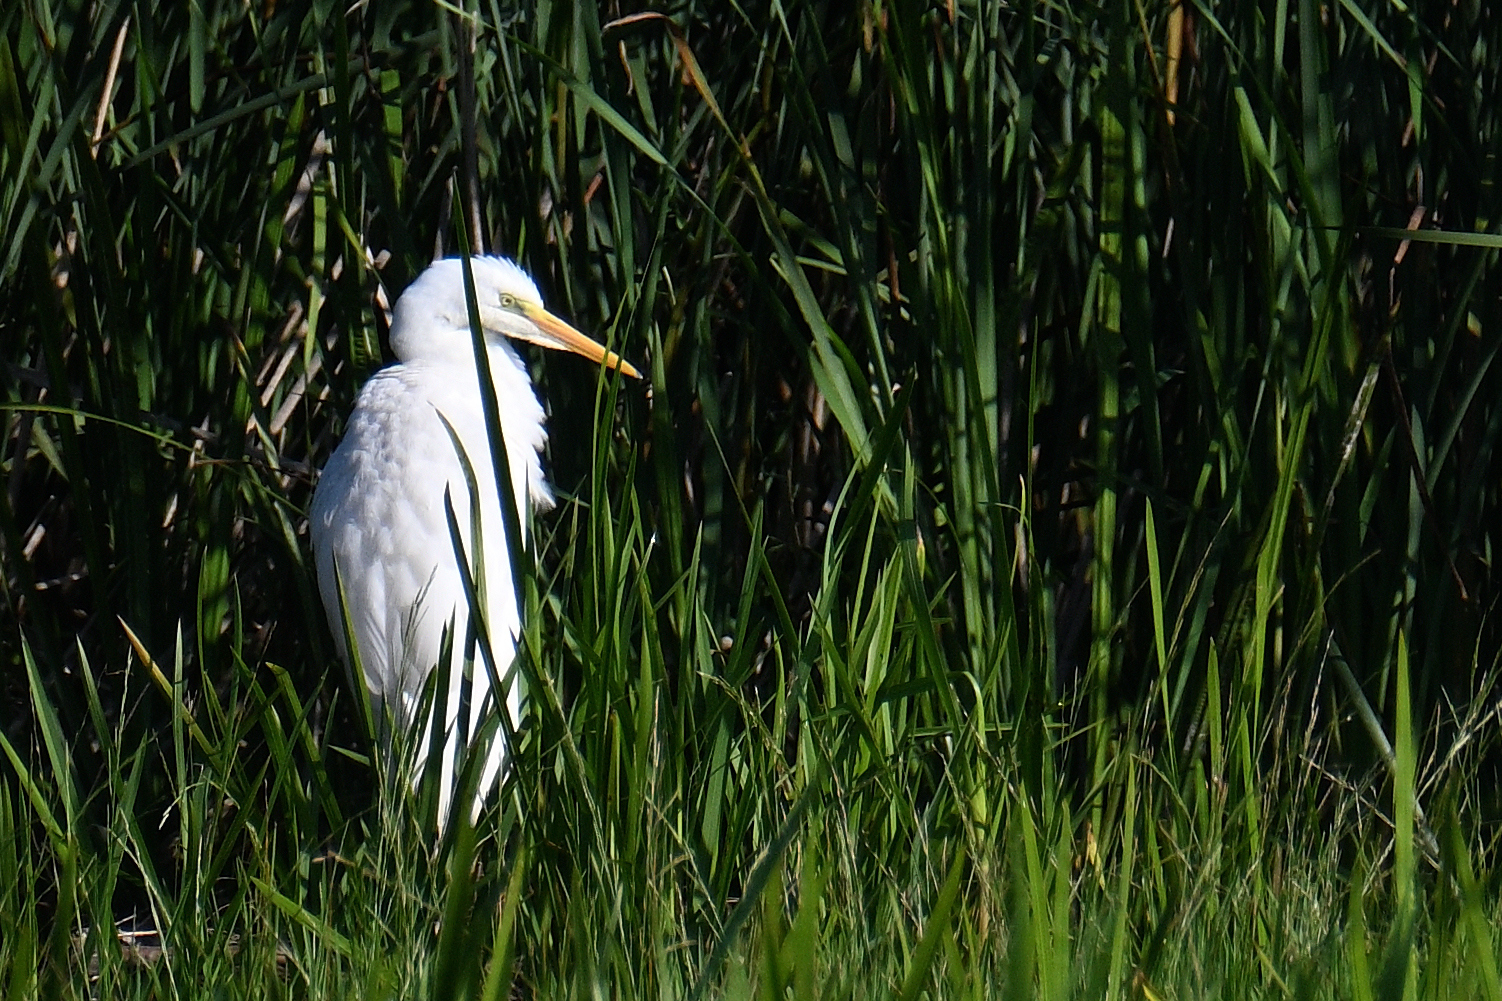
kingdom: Animalia
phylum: Chordata
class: Aves
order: Pelecaniformes
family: Ardeidae
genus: Ardea
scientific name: Ardea alba
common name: Great egret
